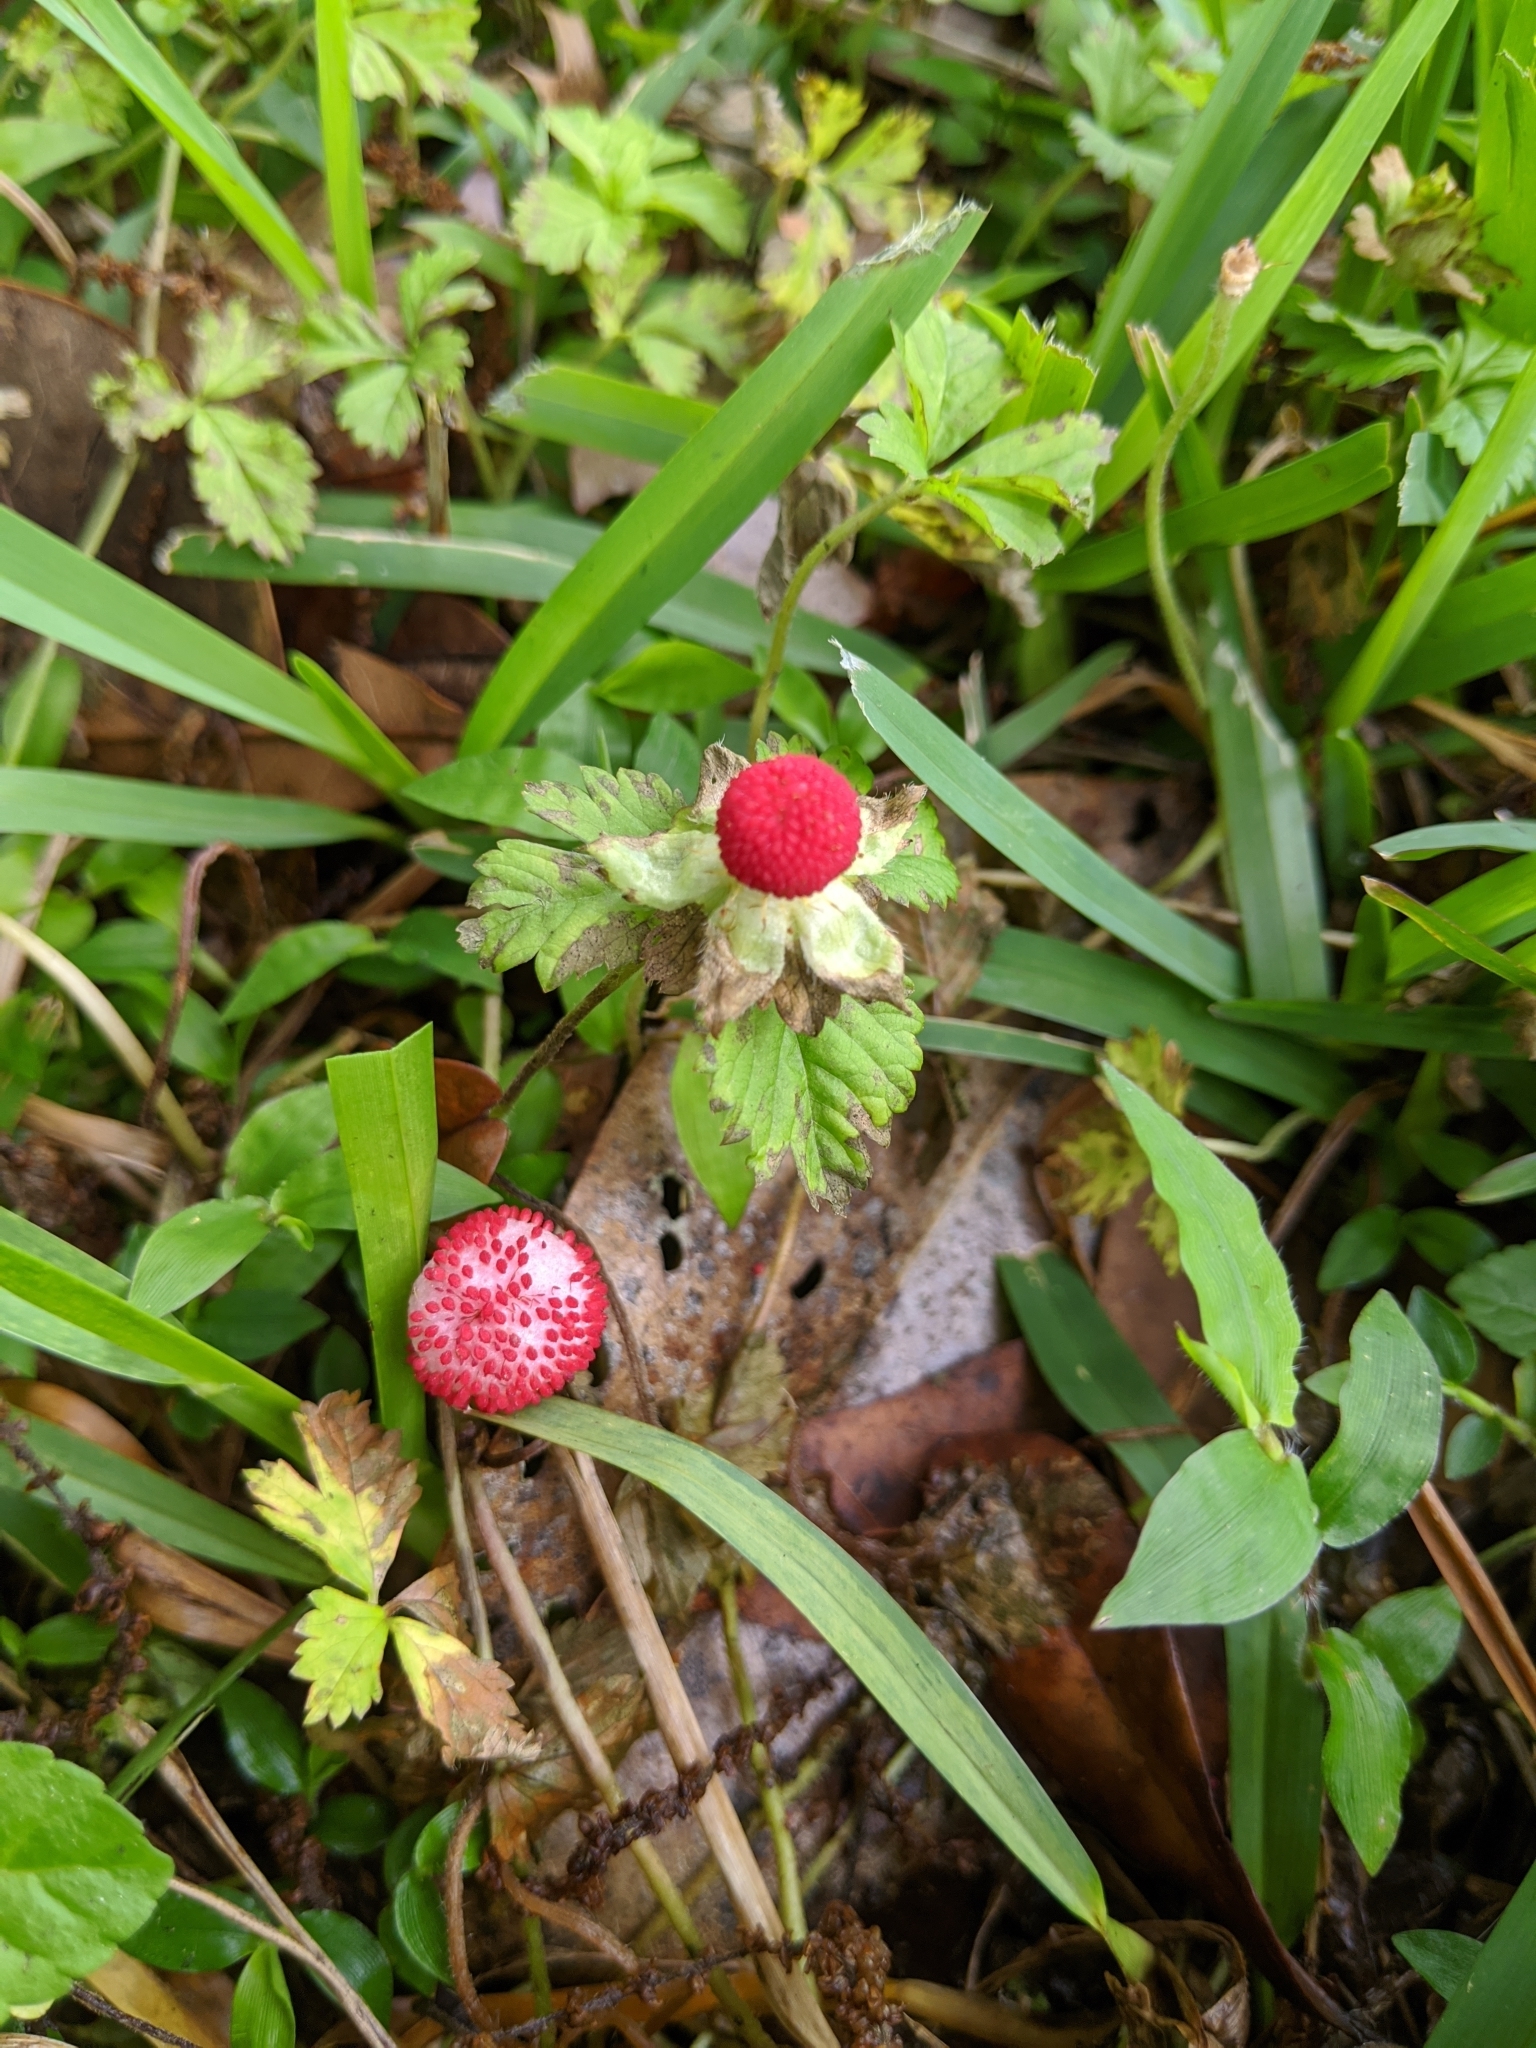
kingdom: Plantae
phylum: Tracheophyta
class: Magnoliopsida
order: Rosales
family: Rosaceae
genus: Potentilla
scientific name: Potentilla indica
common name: Yellow-flowered strawberry
